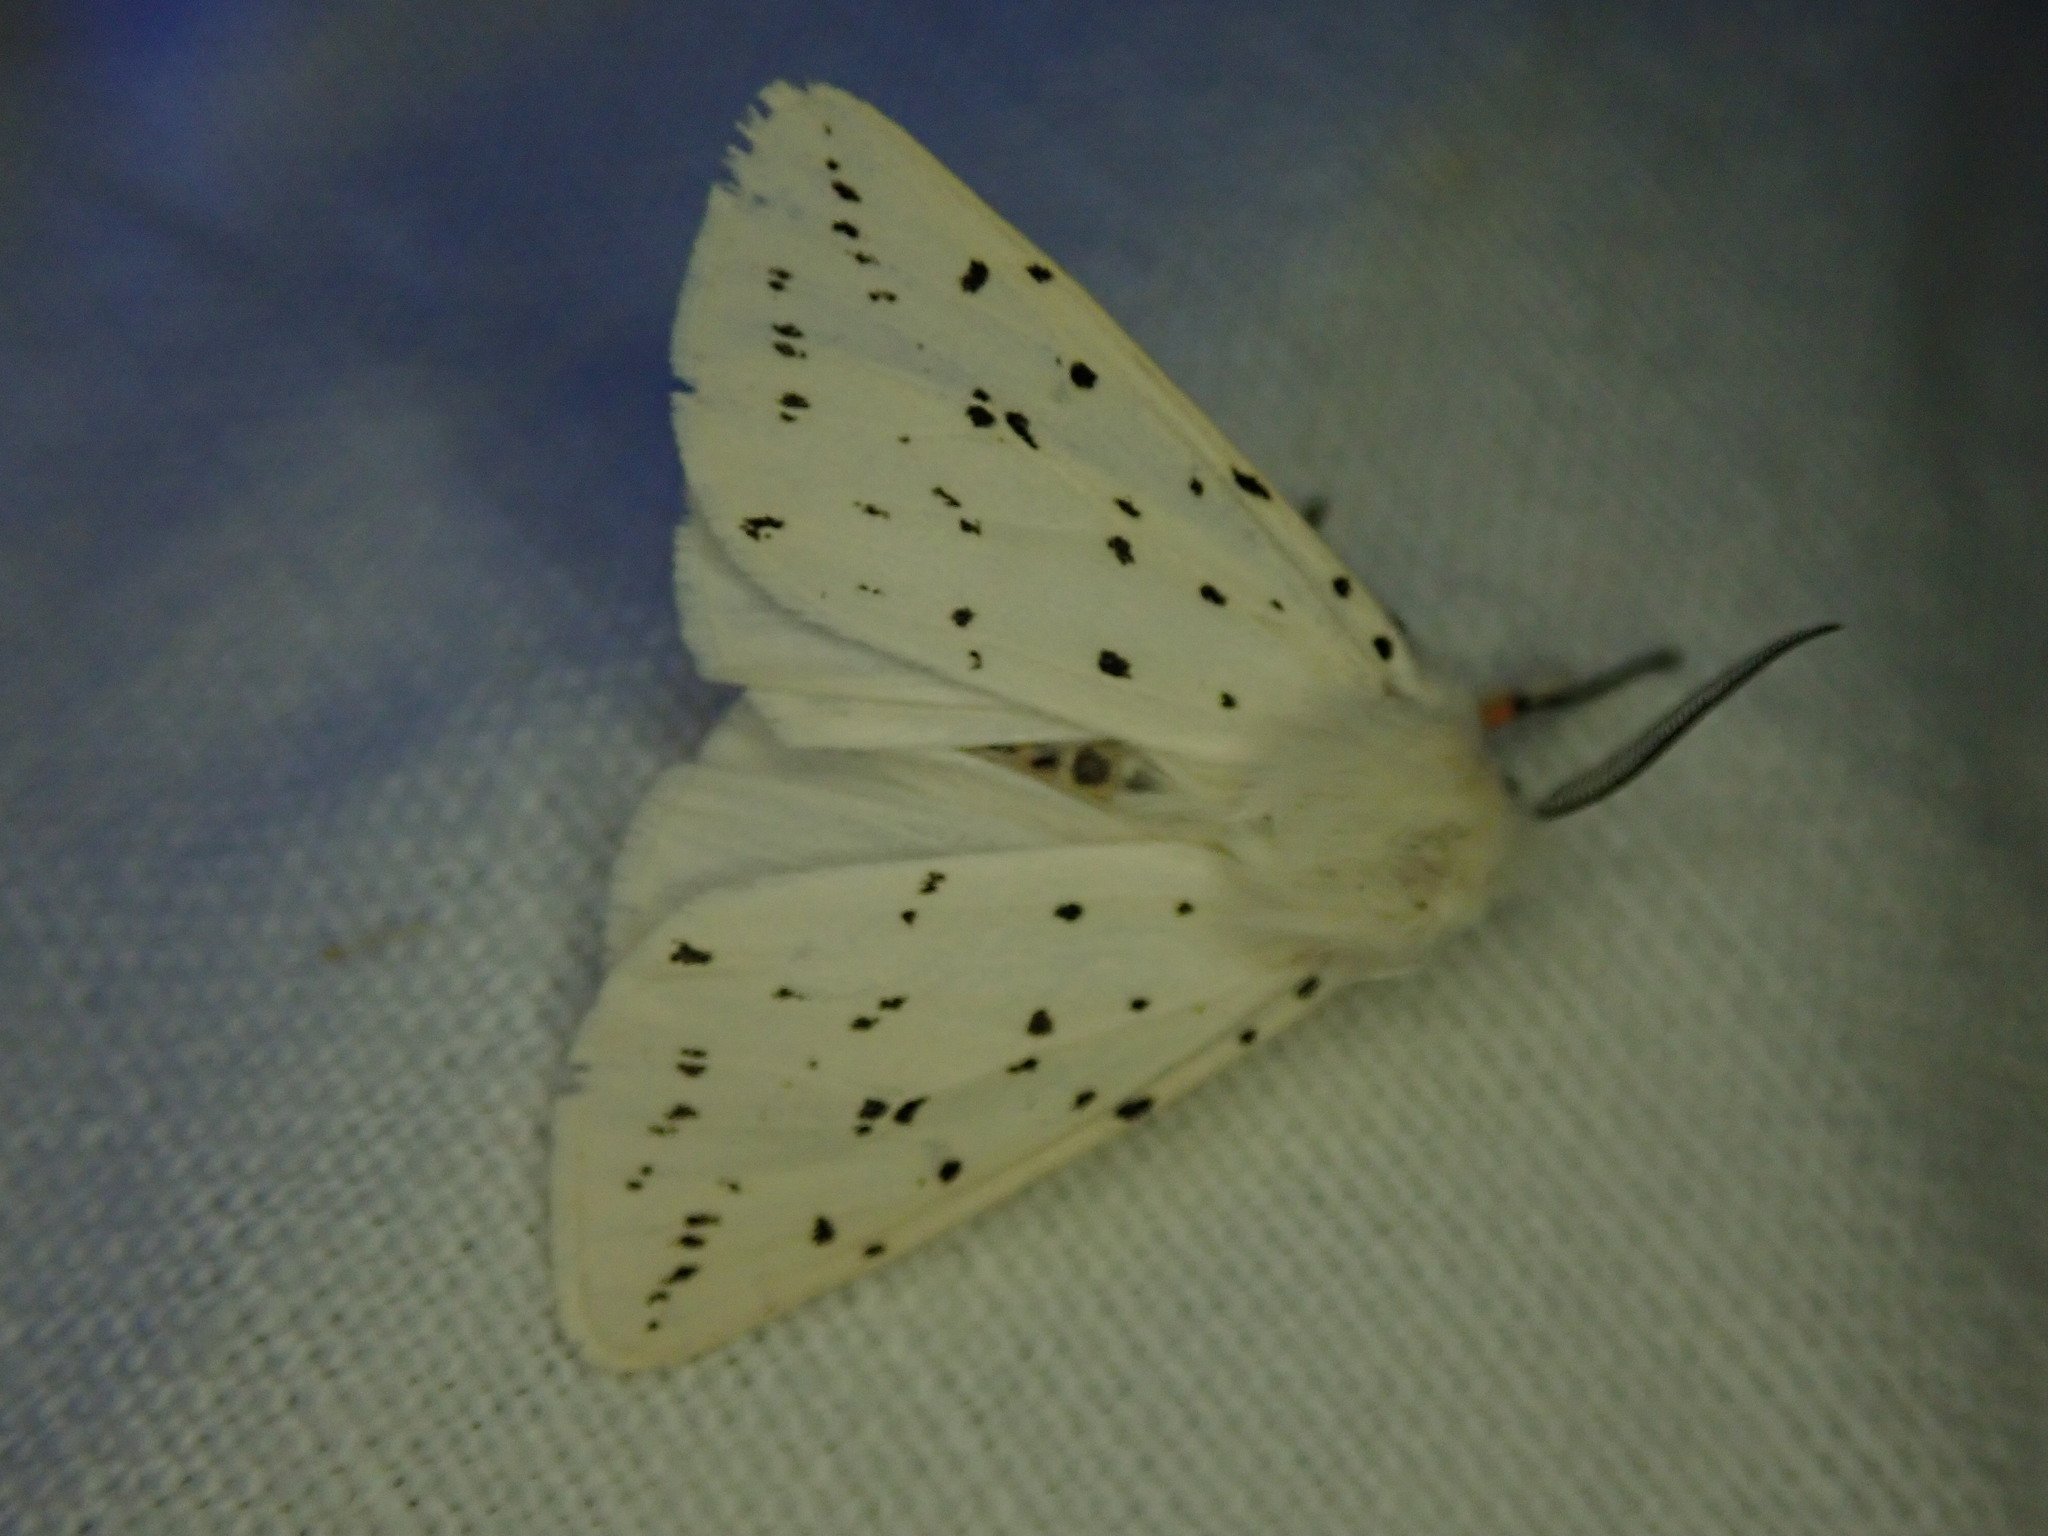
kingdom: Animalia
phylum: Arthropoda
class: Insecta
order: Lepidoptera
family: Erebidae
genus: Spilosoma
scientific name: Spilosoma lubricipeda
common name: White ermine
